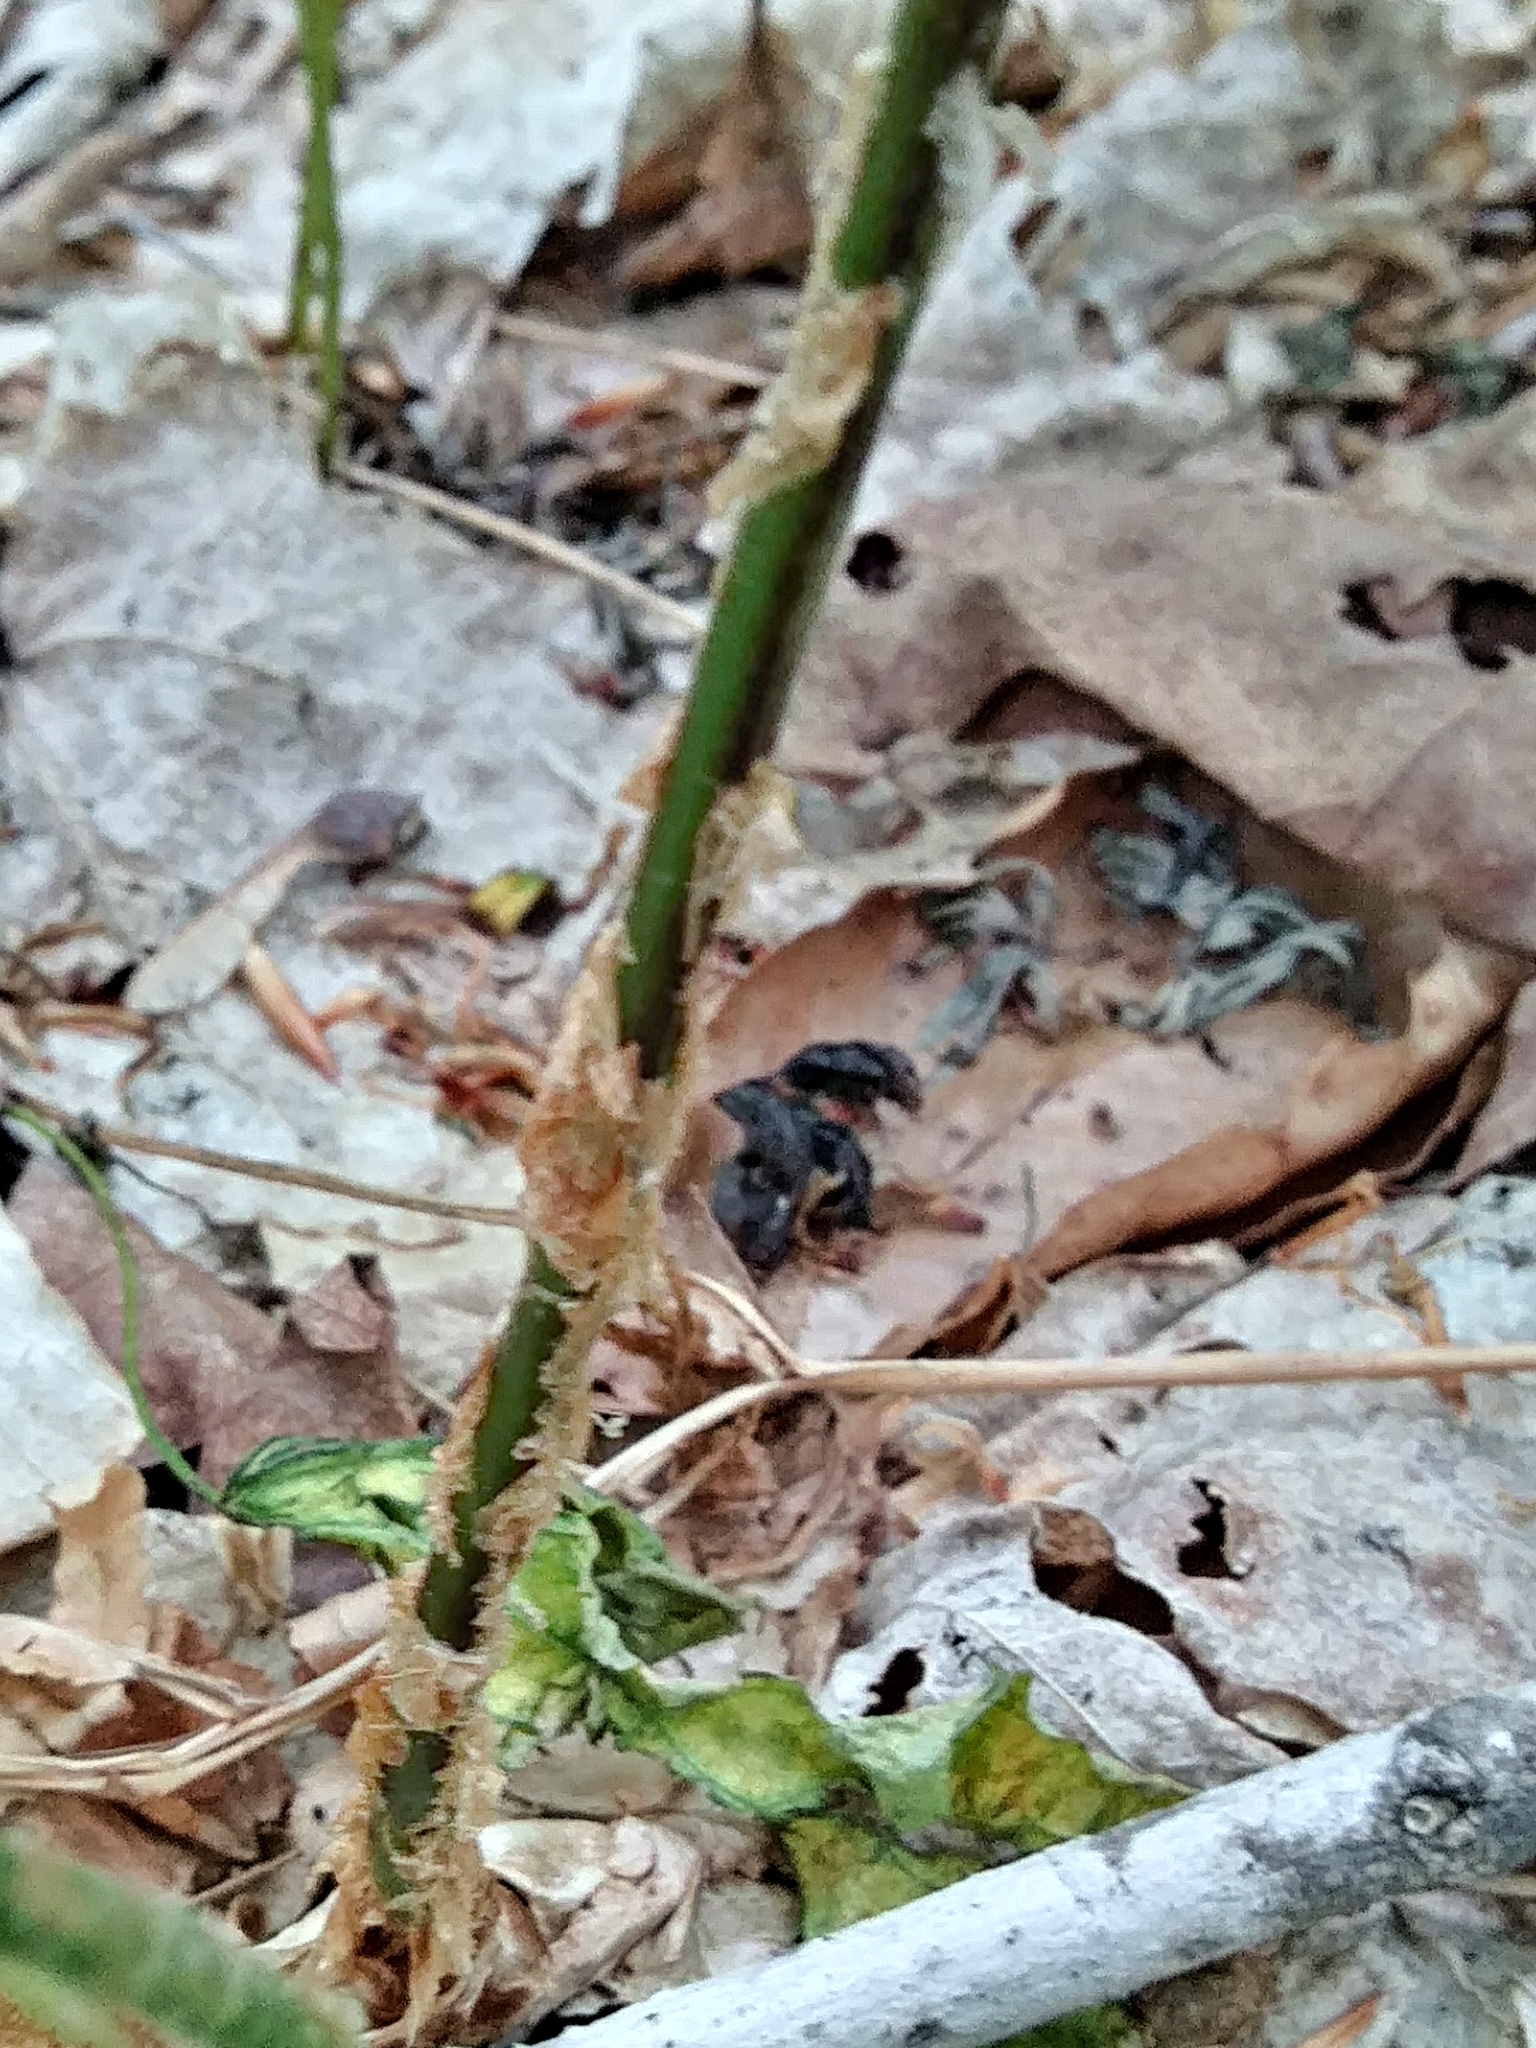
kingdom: Plantae
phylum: Tracheophyta
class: Polypodiopsida
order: Polypodiales
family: Dryopteridaceae
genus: Dryopteris
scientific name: Dryopteris goldieana
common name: Goldie's fern
